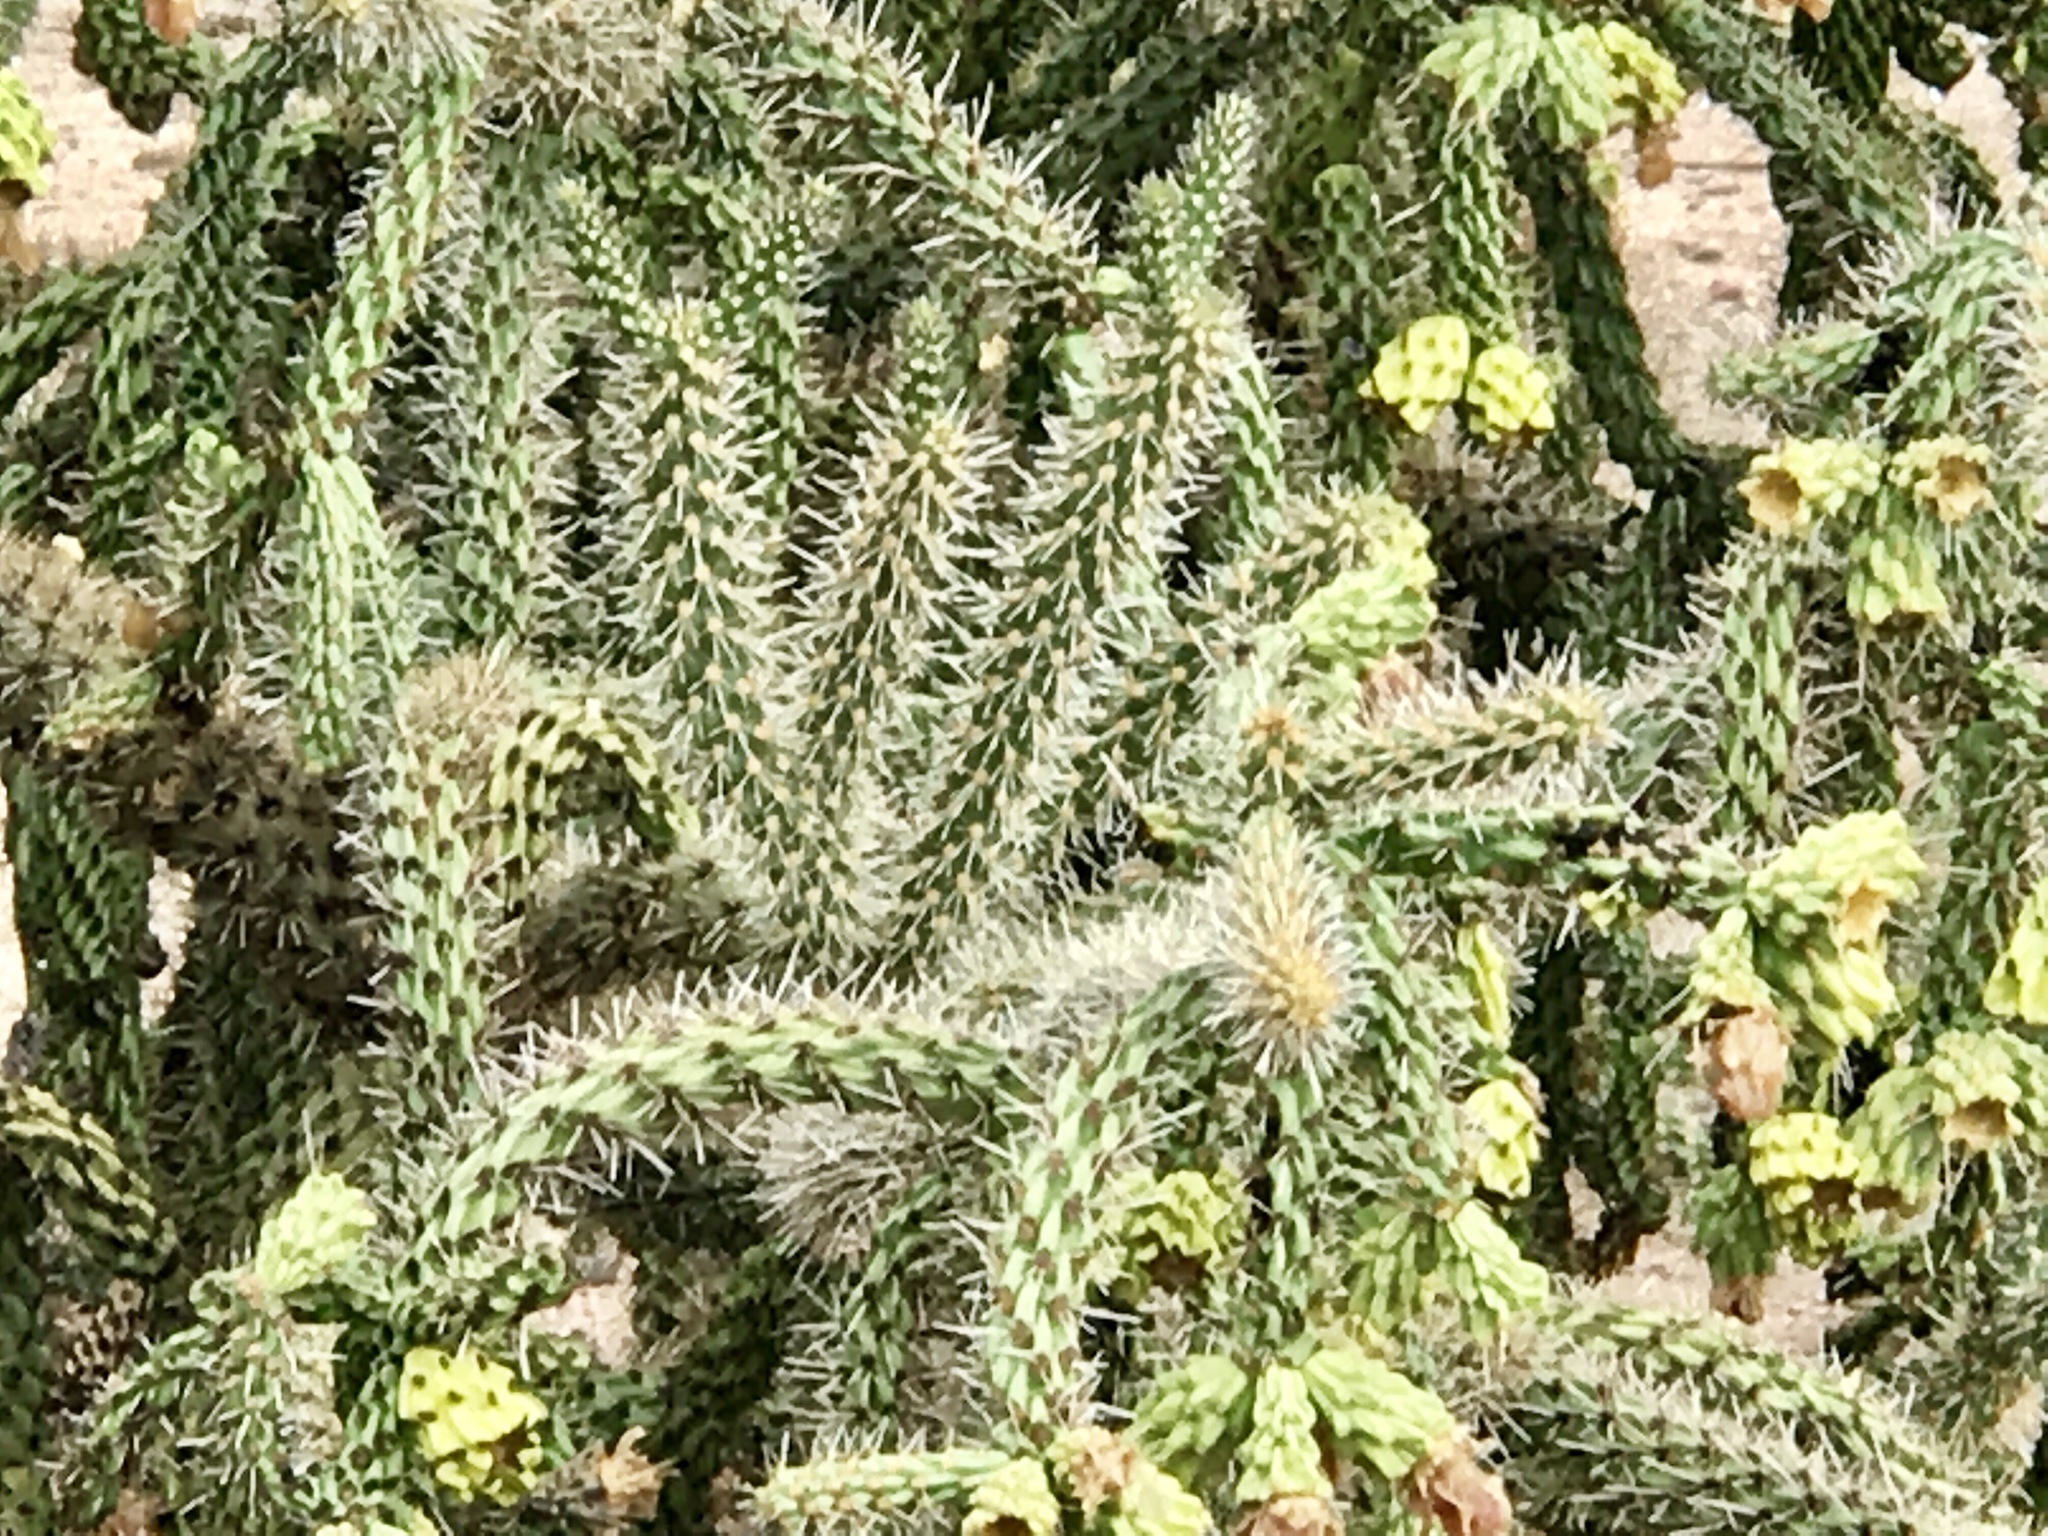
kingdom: Plantae
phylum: Tracheophyta
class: Magnoliopsida
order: Caryophyllales
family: Cactaceae
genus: Cylindropuntia
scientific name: Cylindropuntia imbricata
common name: Candelabrum cactus
